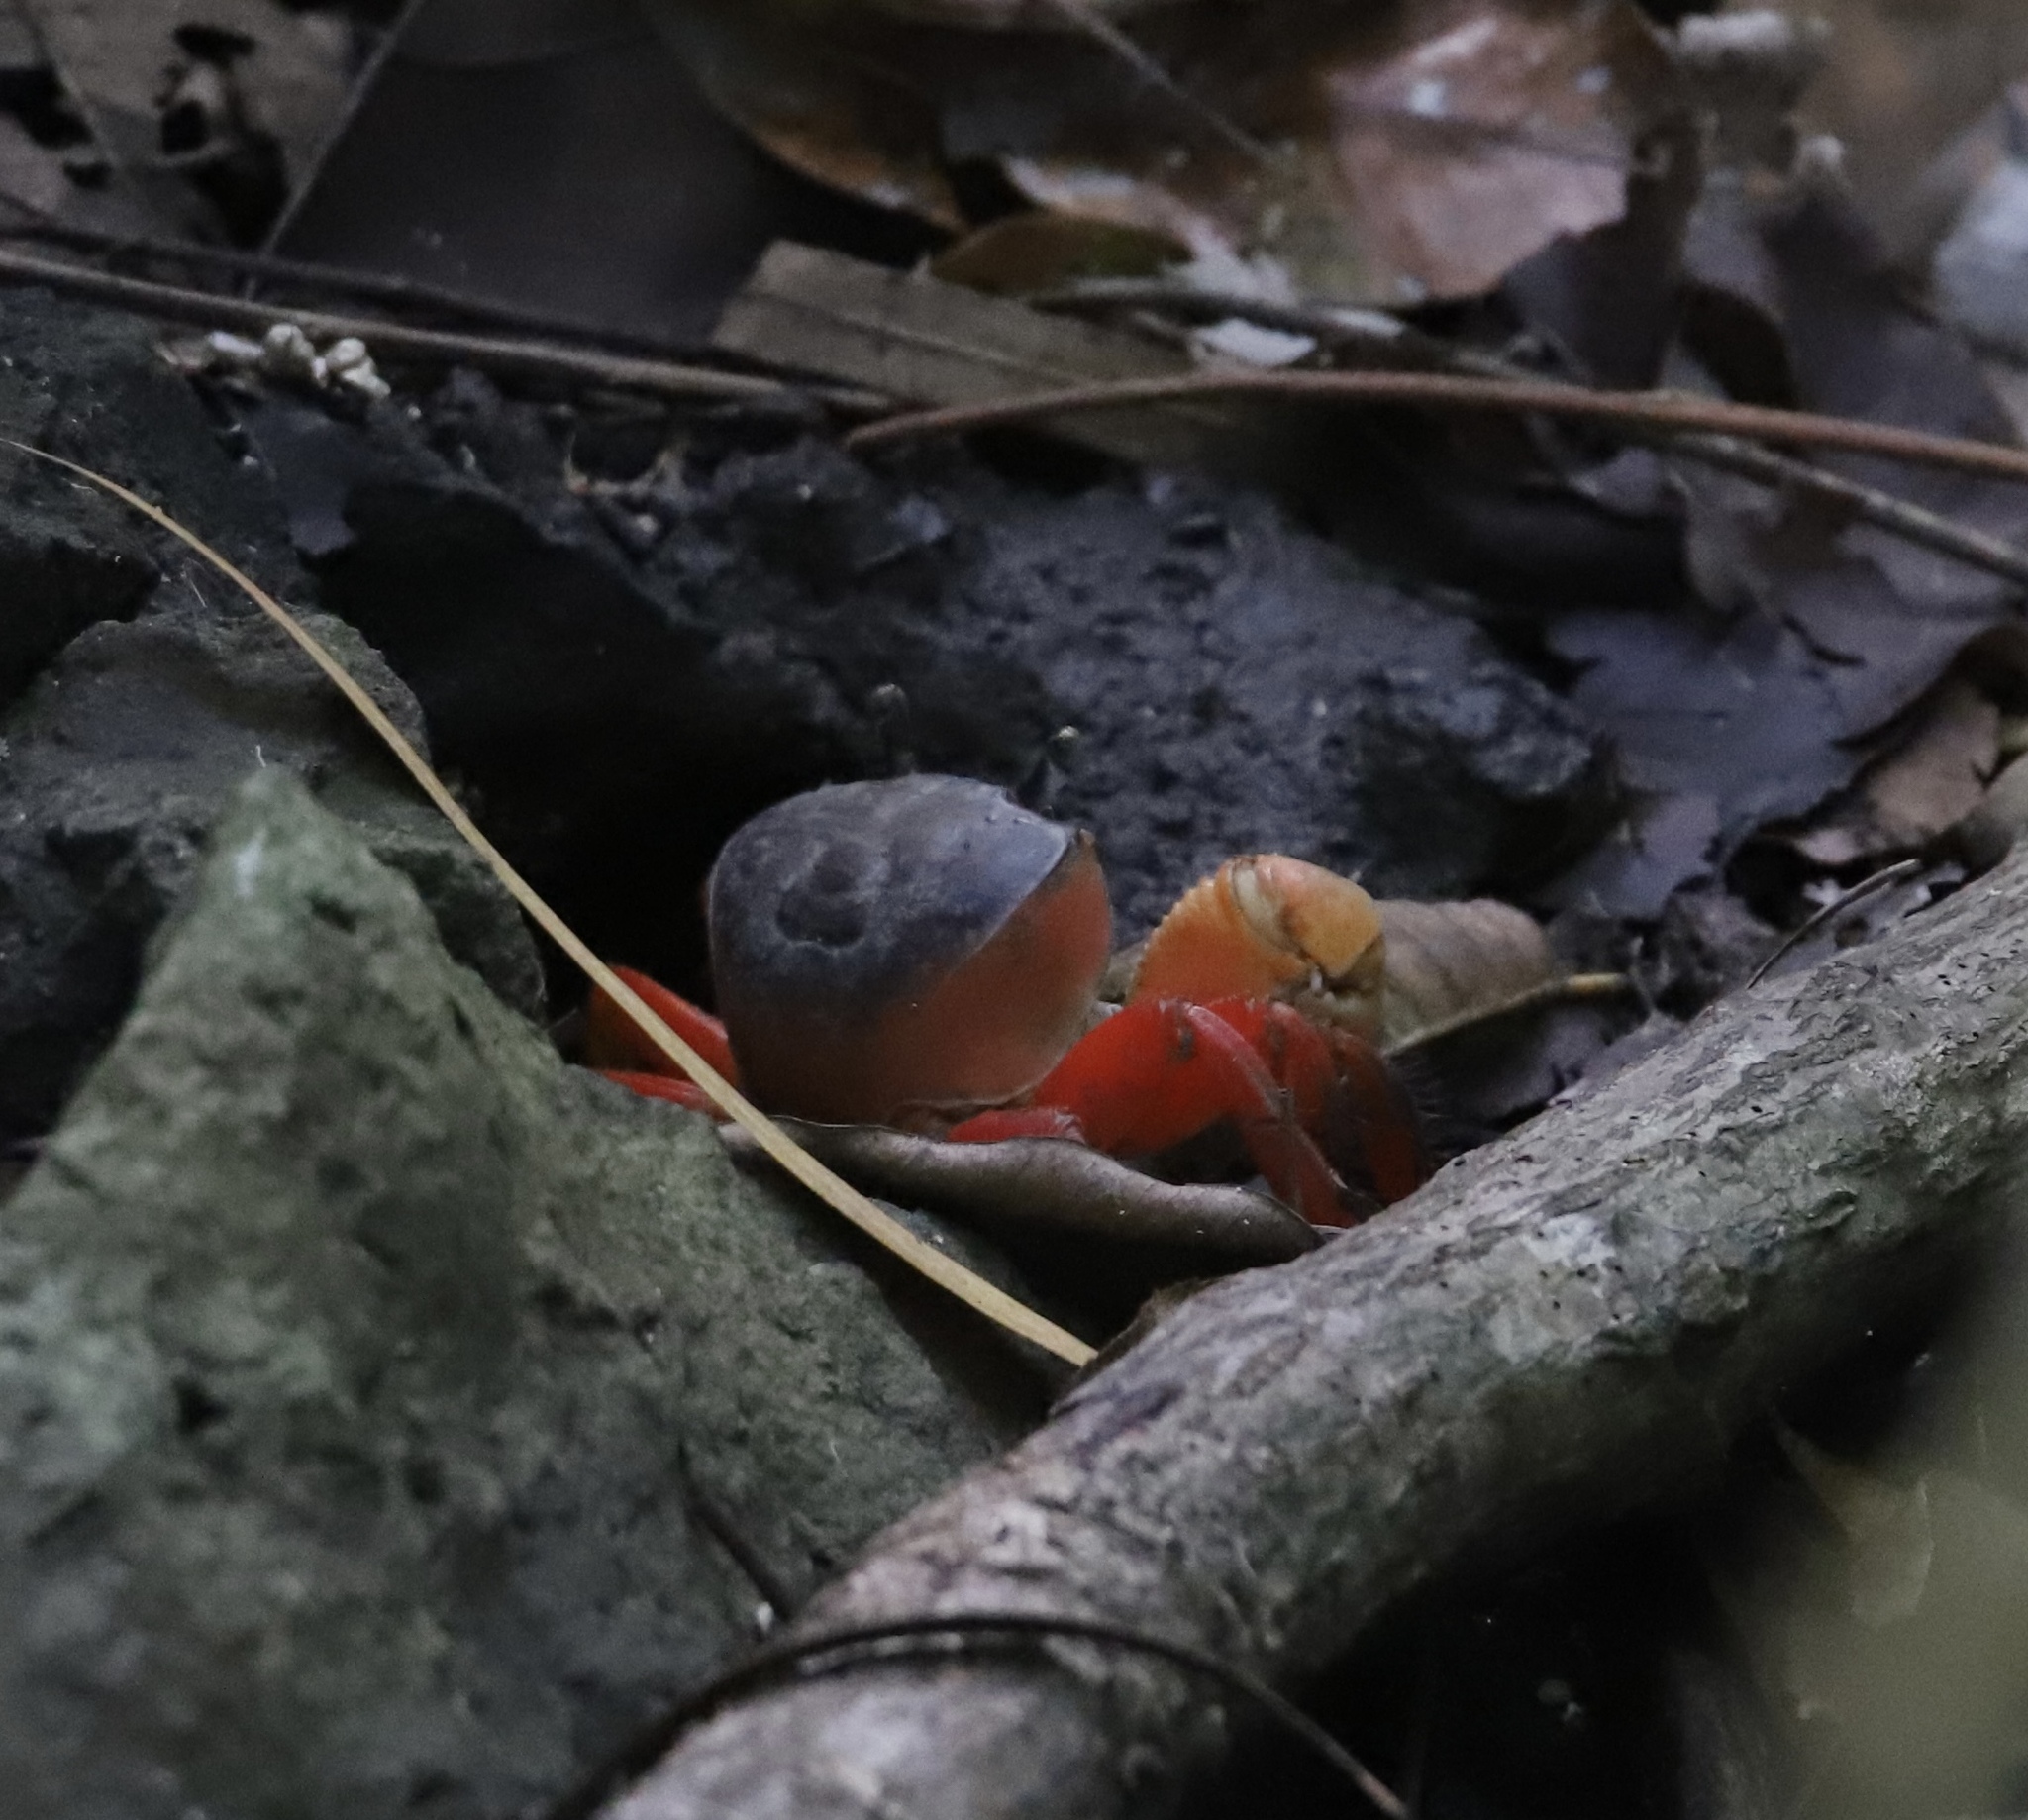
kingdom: Animalia
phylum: Arthropoda
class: Malacostraca
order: Decapoda
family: Gecarcinidae
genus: Cardisoma
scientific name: Cardisoma crassum
